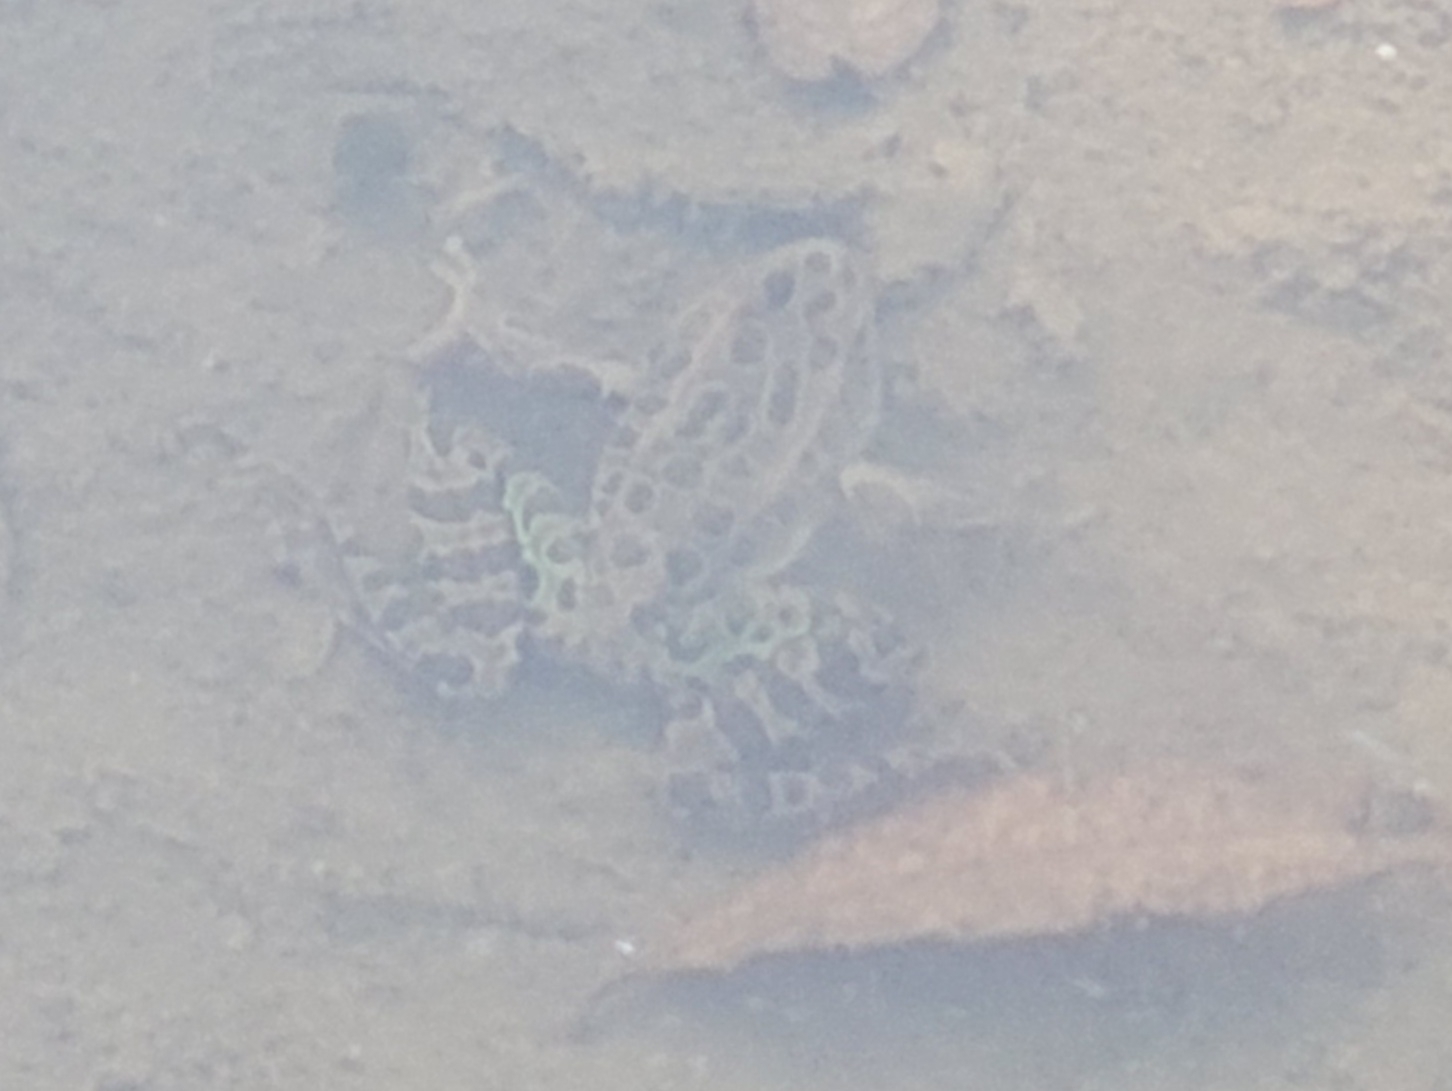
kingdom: Animalia
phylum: Chordata
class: Amphibia
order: Anura
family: Ranidae
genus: Lithobates
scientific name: Lithobates pipiens
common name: Northern leopard frog
